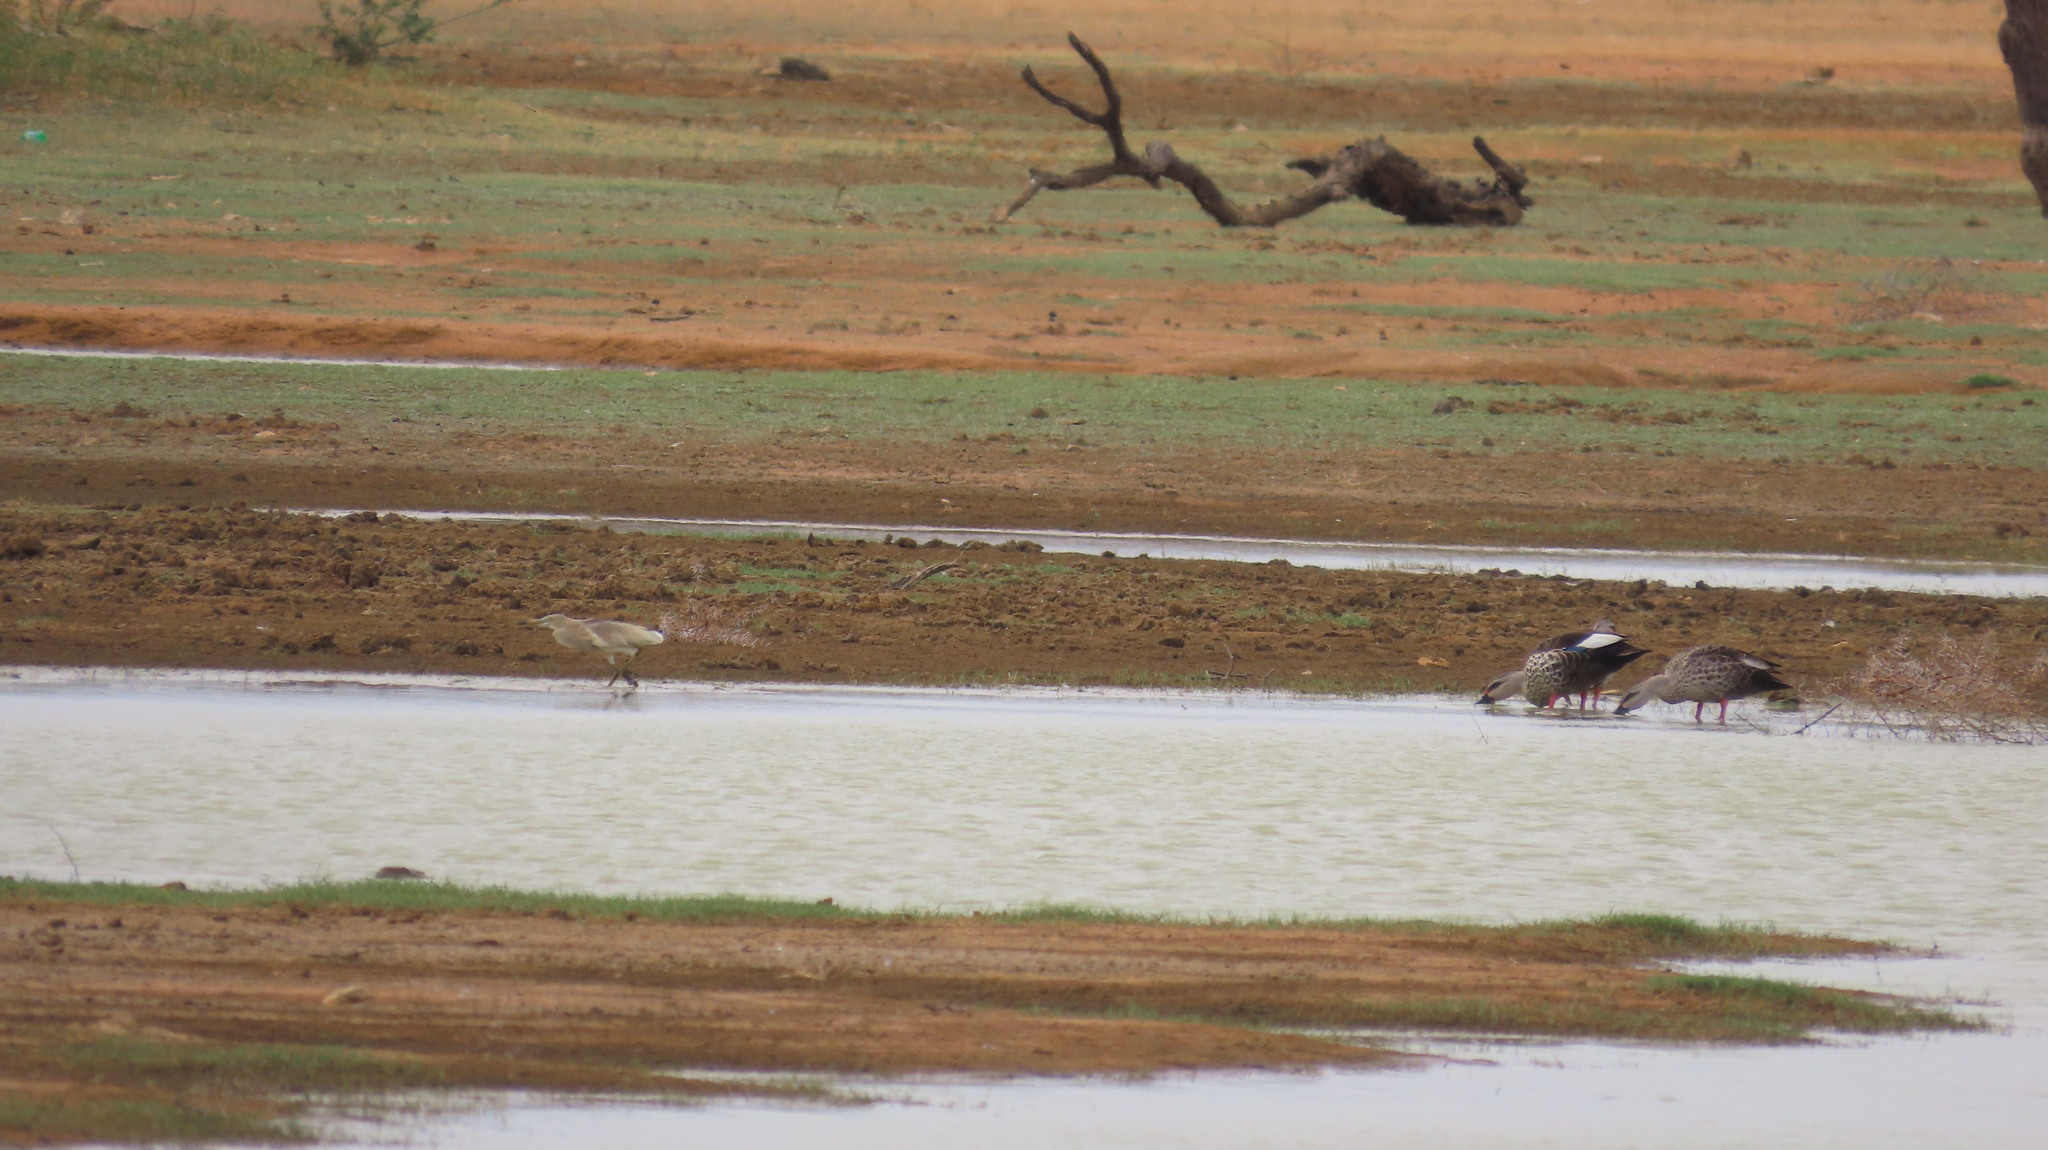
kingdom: Animalia
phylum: Chordata
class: Aves
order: Anseriformes
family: Anatidae
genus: Anas
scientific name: Anas poecilorhyncha
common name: Indian spot-billed duck
